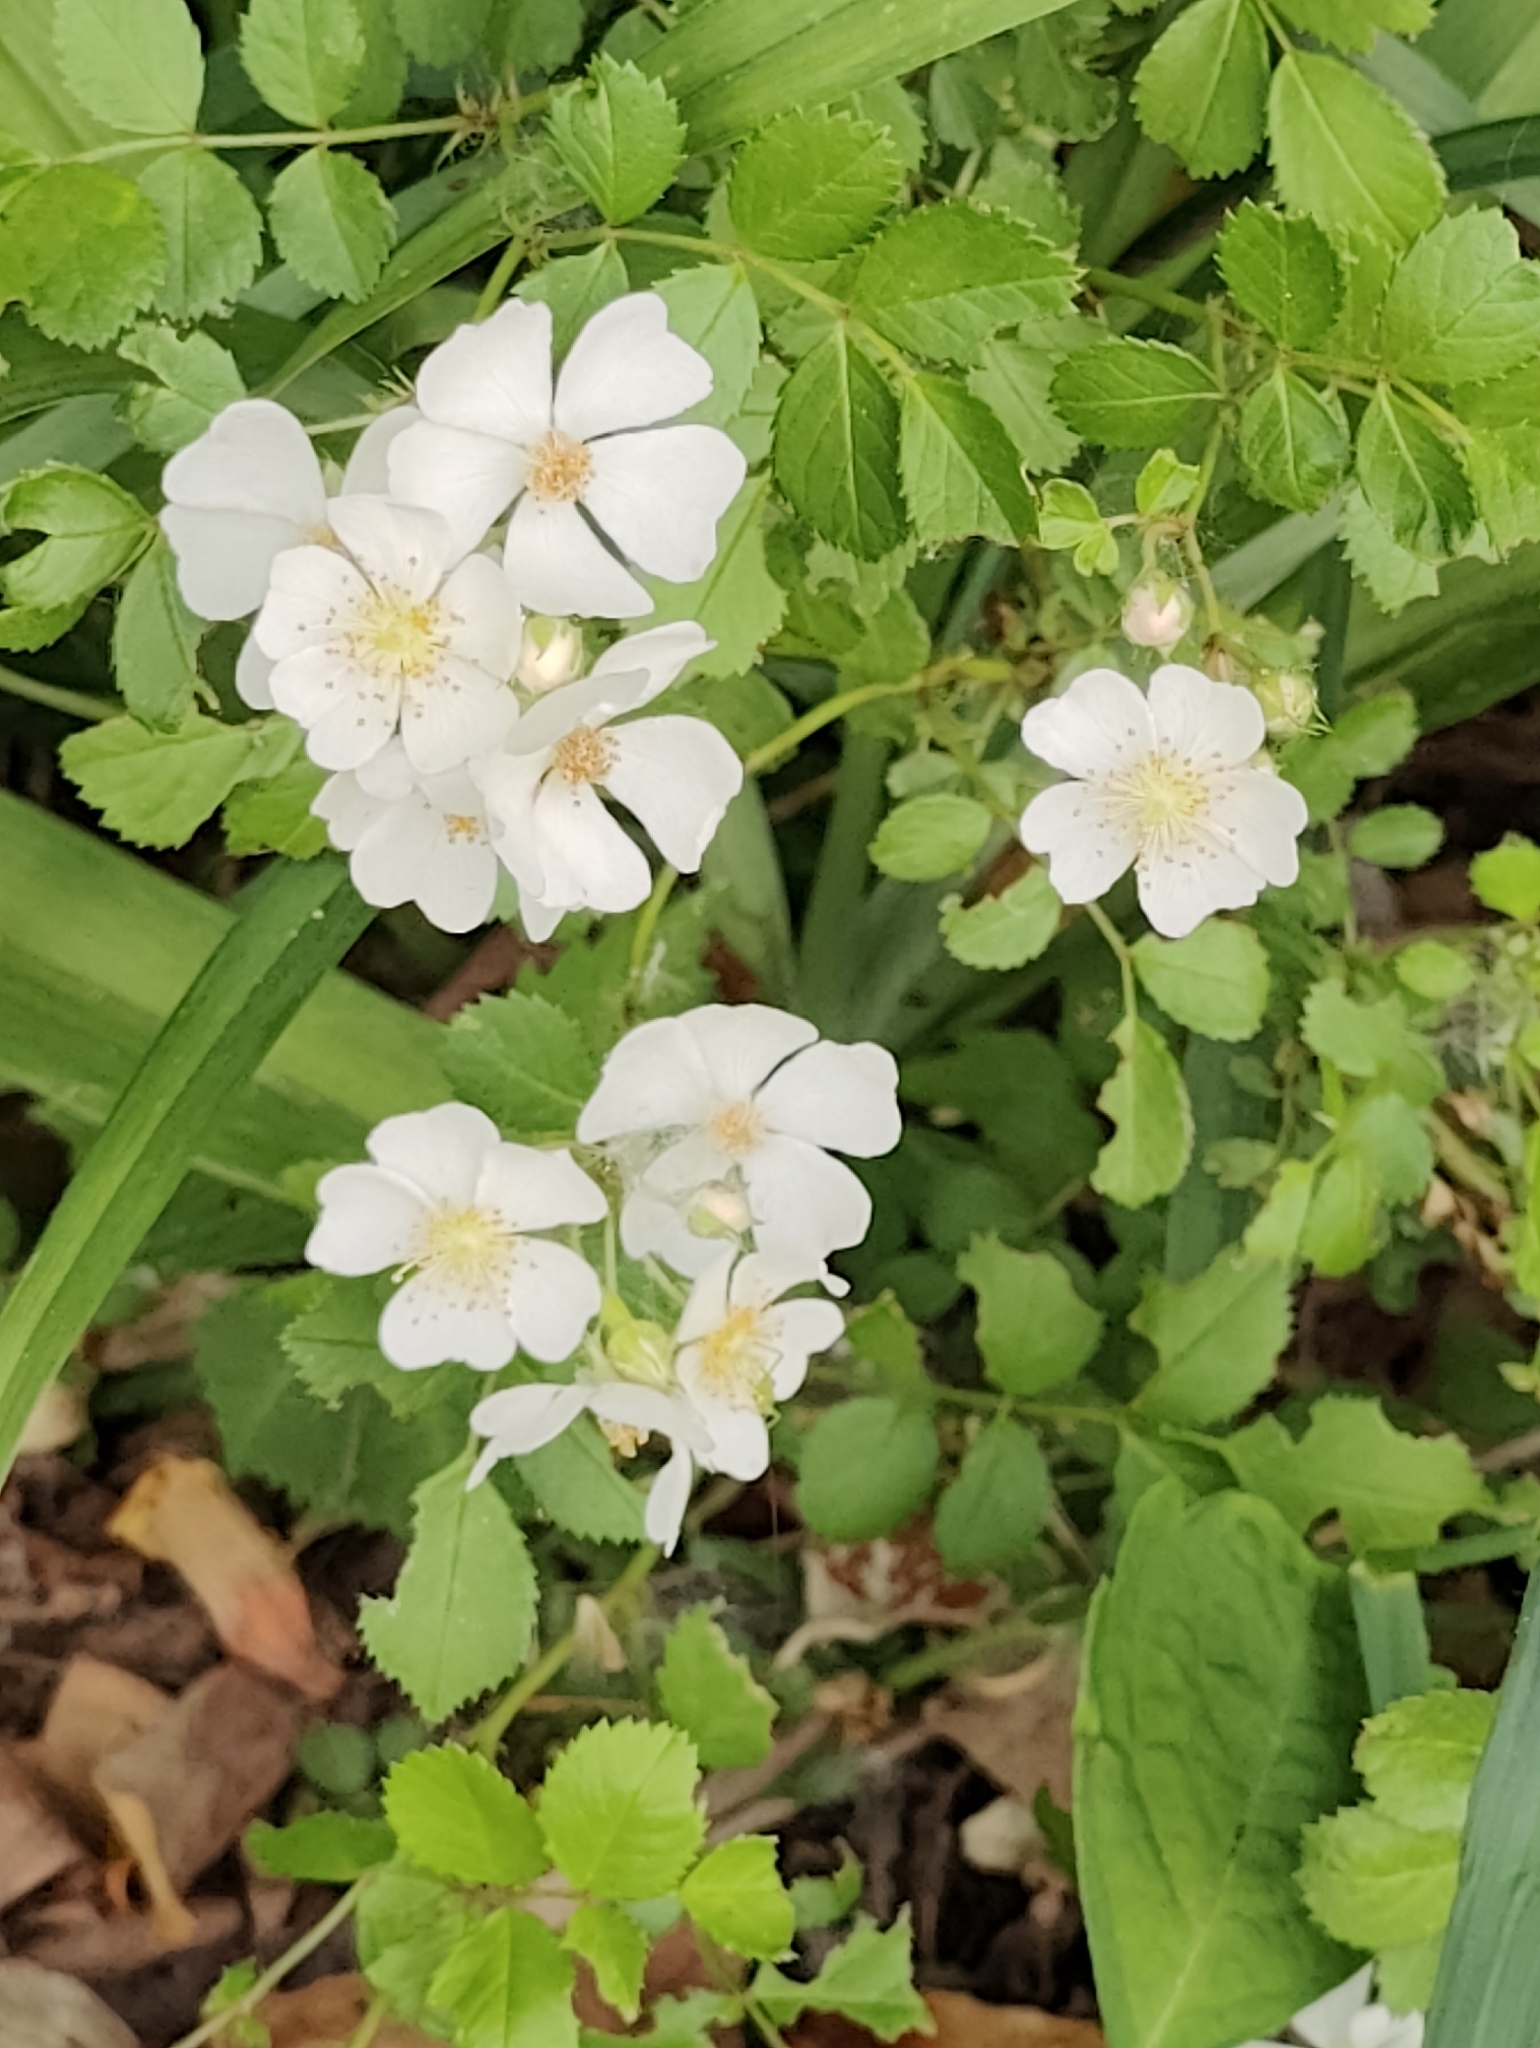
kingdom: Plantae
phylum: Tracheophyta
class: Magnoliopsida
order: Rosales
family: Rosaceae
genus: Rosa
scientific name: Rosa multiflora
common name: Multiflora rose
